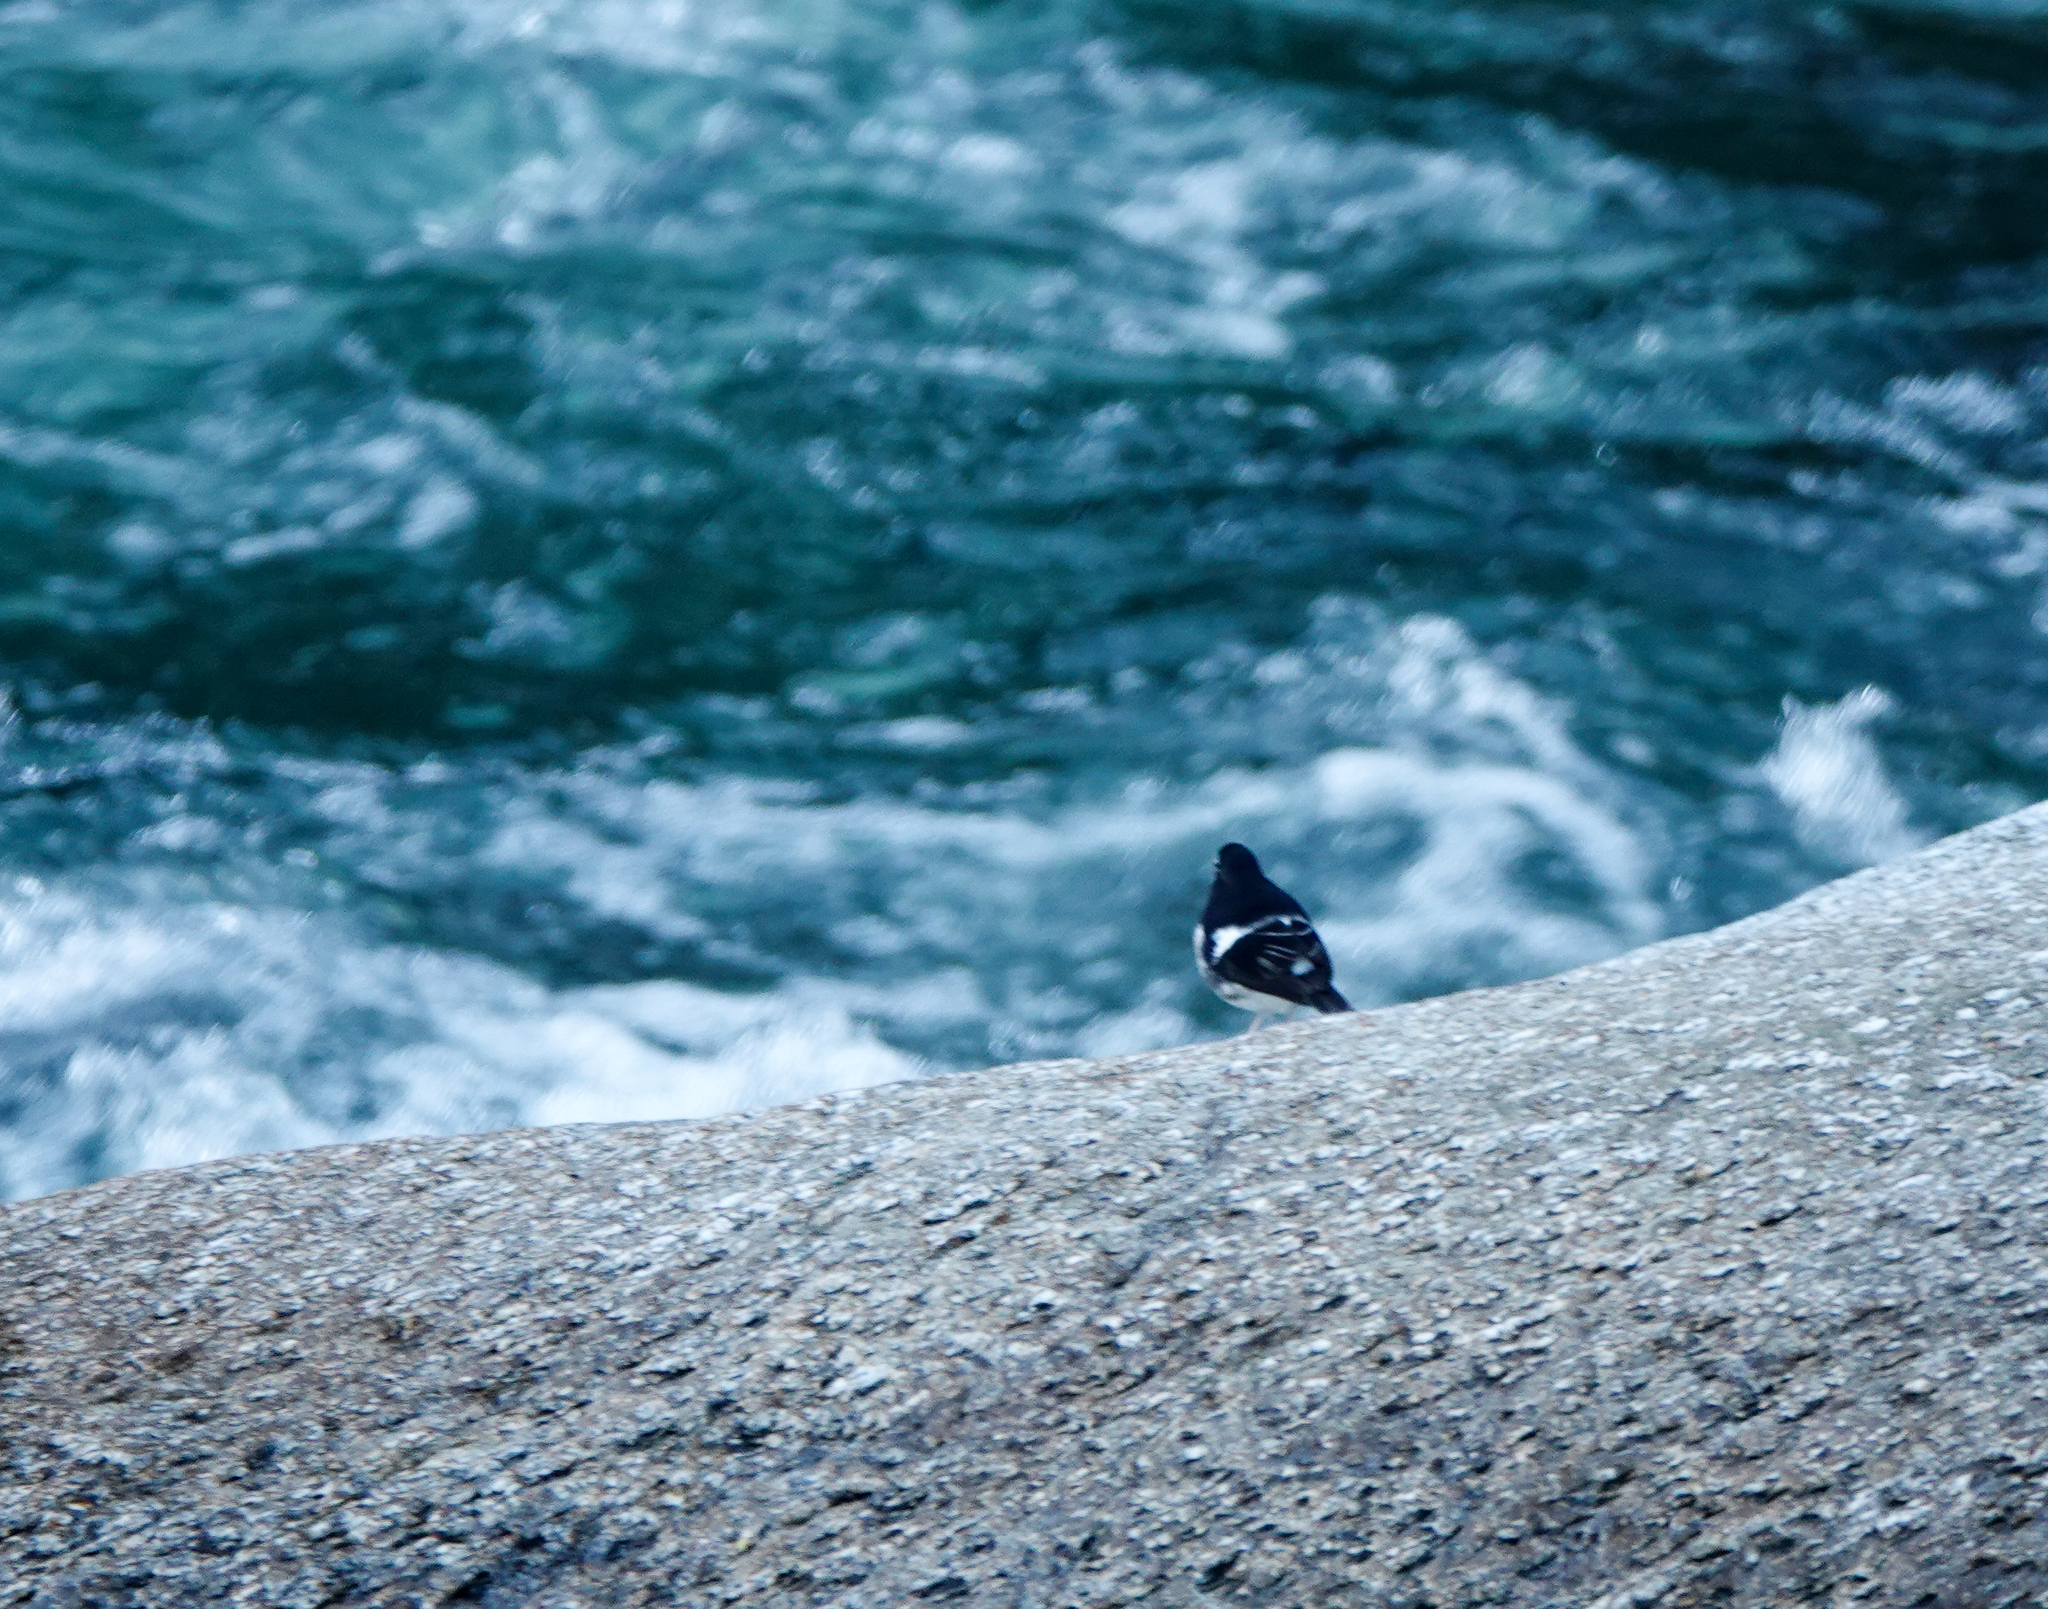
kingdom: Animalia
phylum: Chordata
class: Aves
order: Passeriformes
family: Muscicapidae
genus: Enicurus
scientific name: Enicurus scouleri
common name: Little forktail
